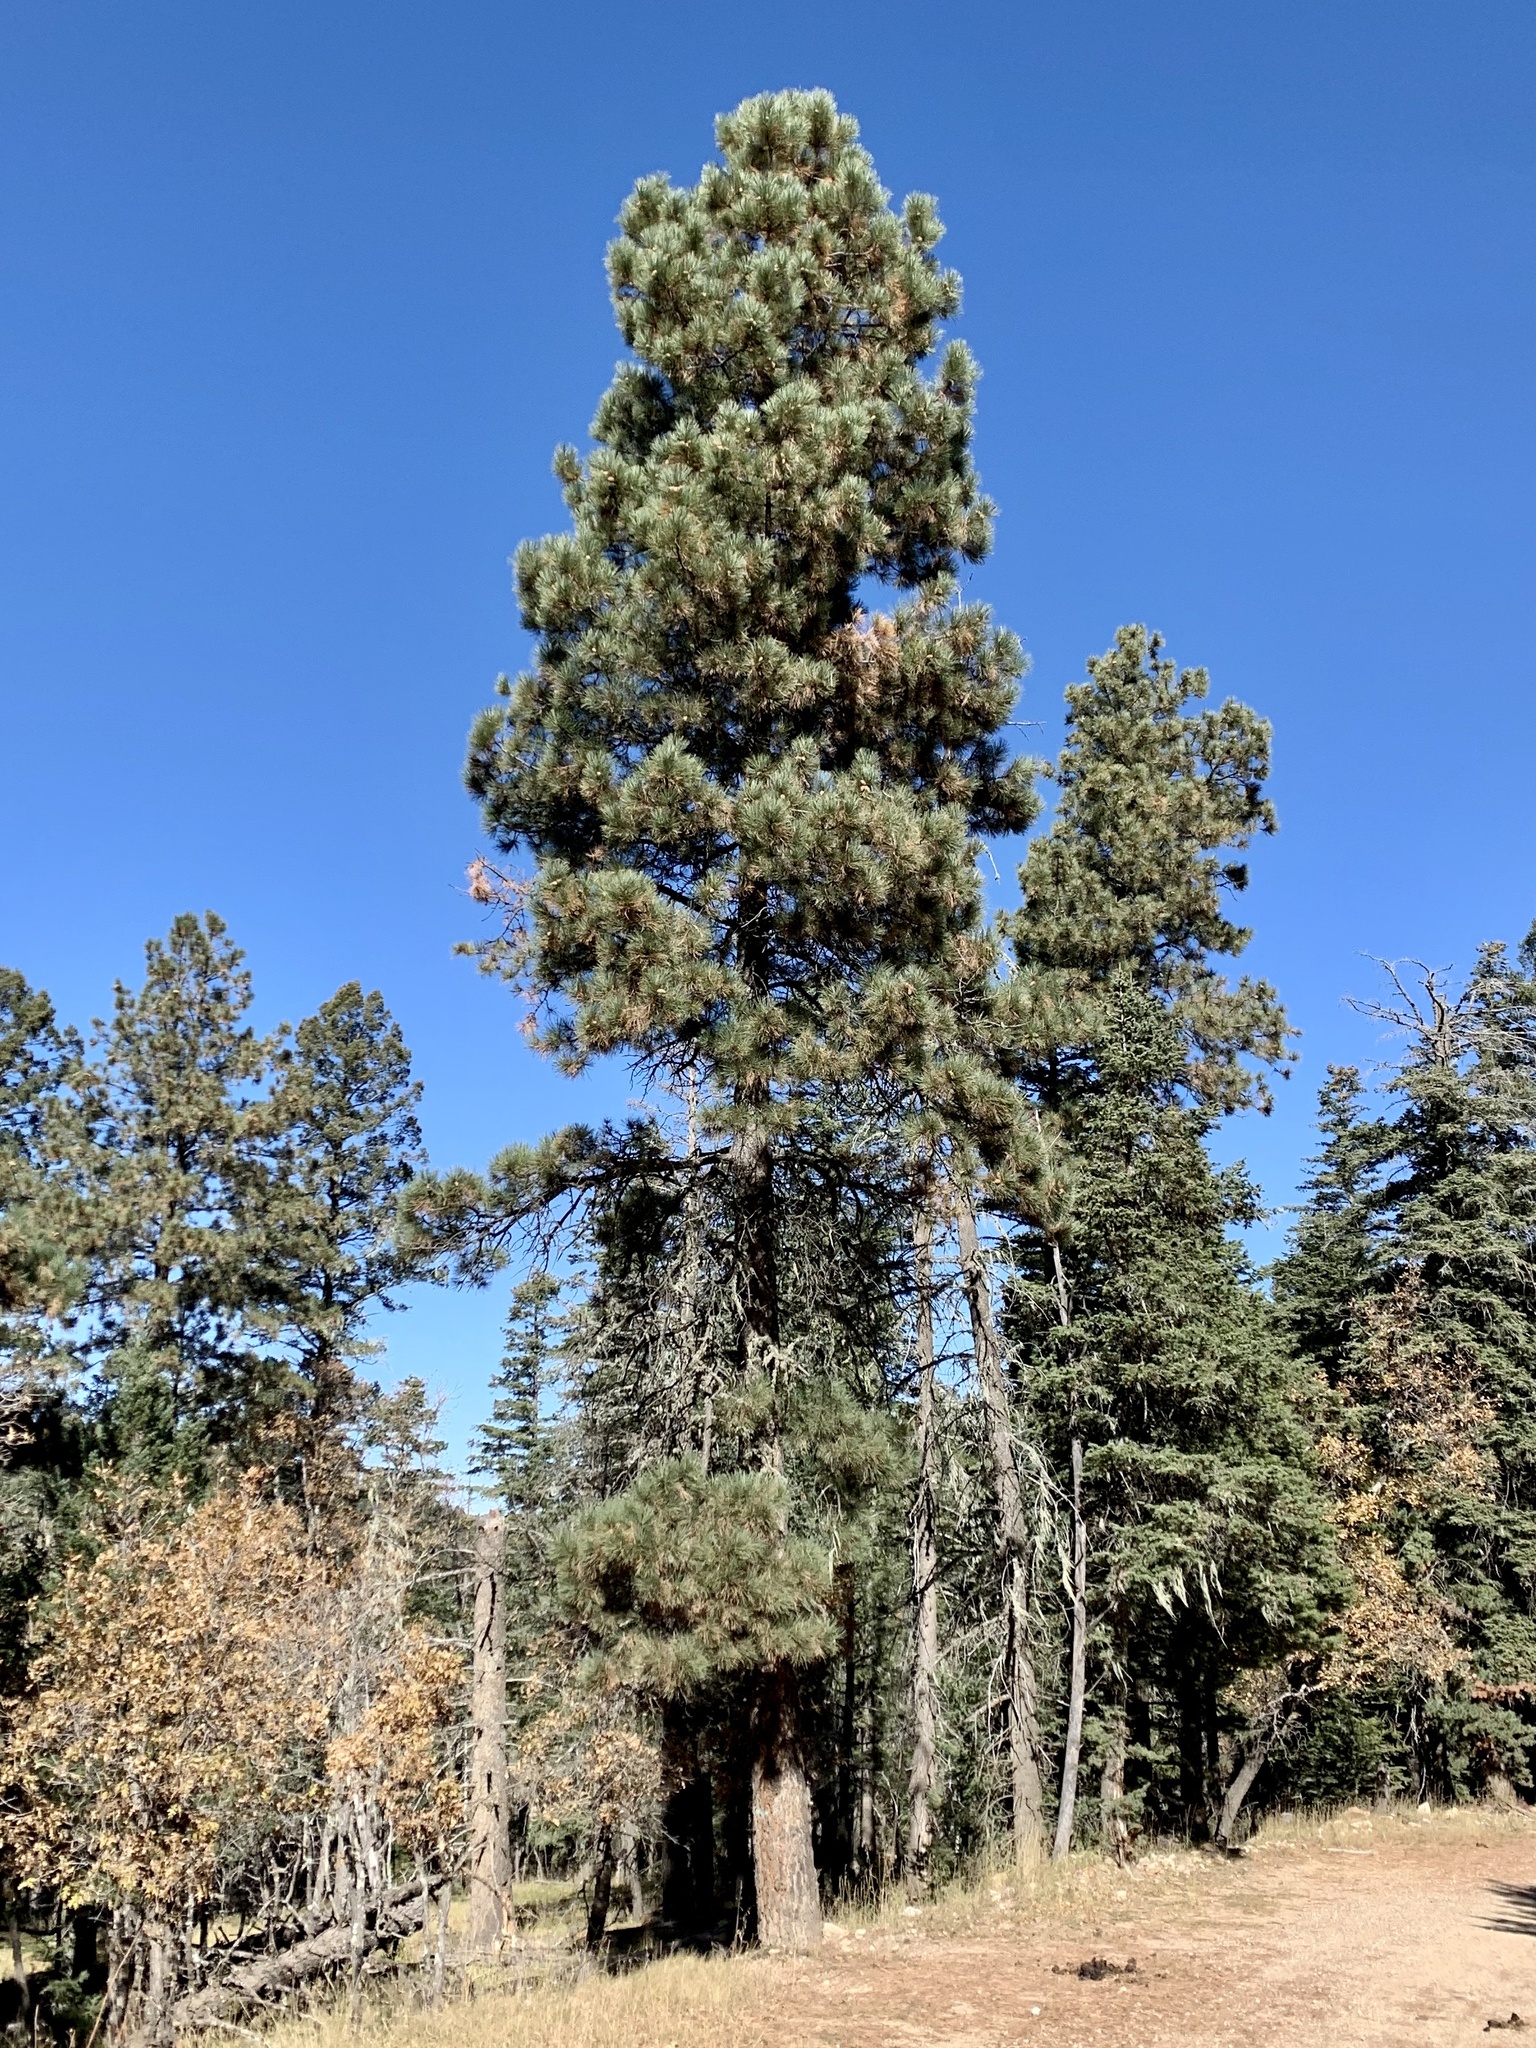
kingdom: Plantae
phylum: Tracheophyta
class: Pinopsida
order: Pinales
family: Pinaceae
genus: Pinus
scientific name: Pinus ponderosa
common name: Western yellow-pine
